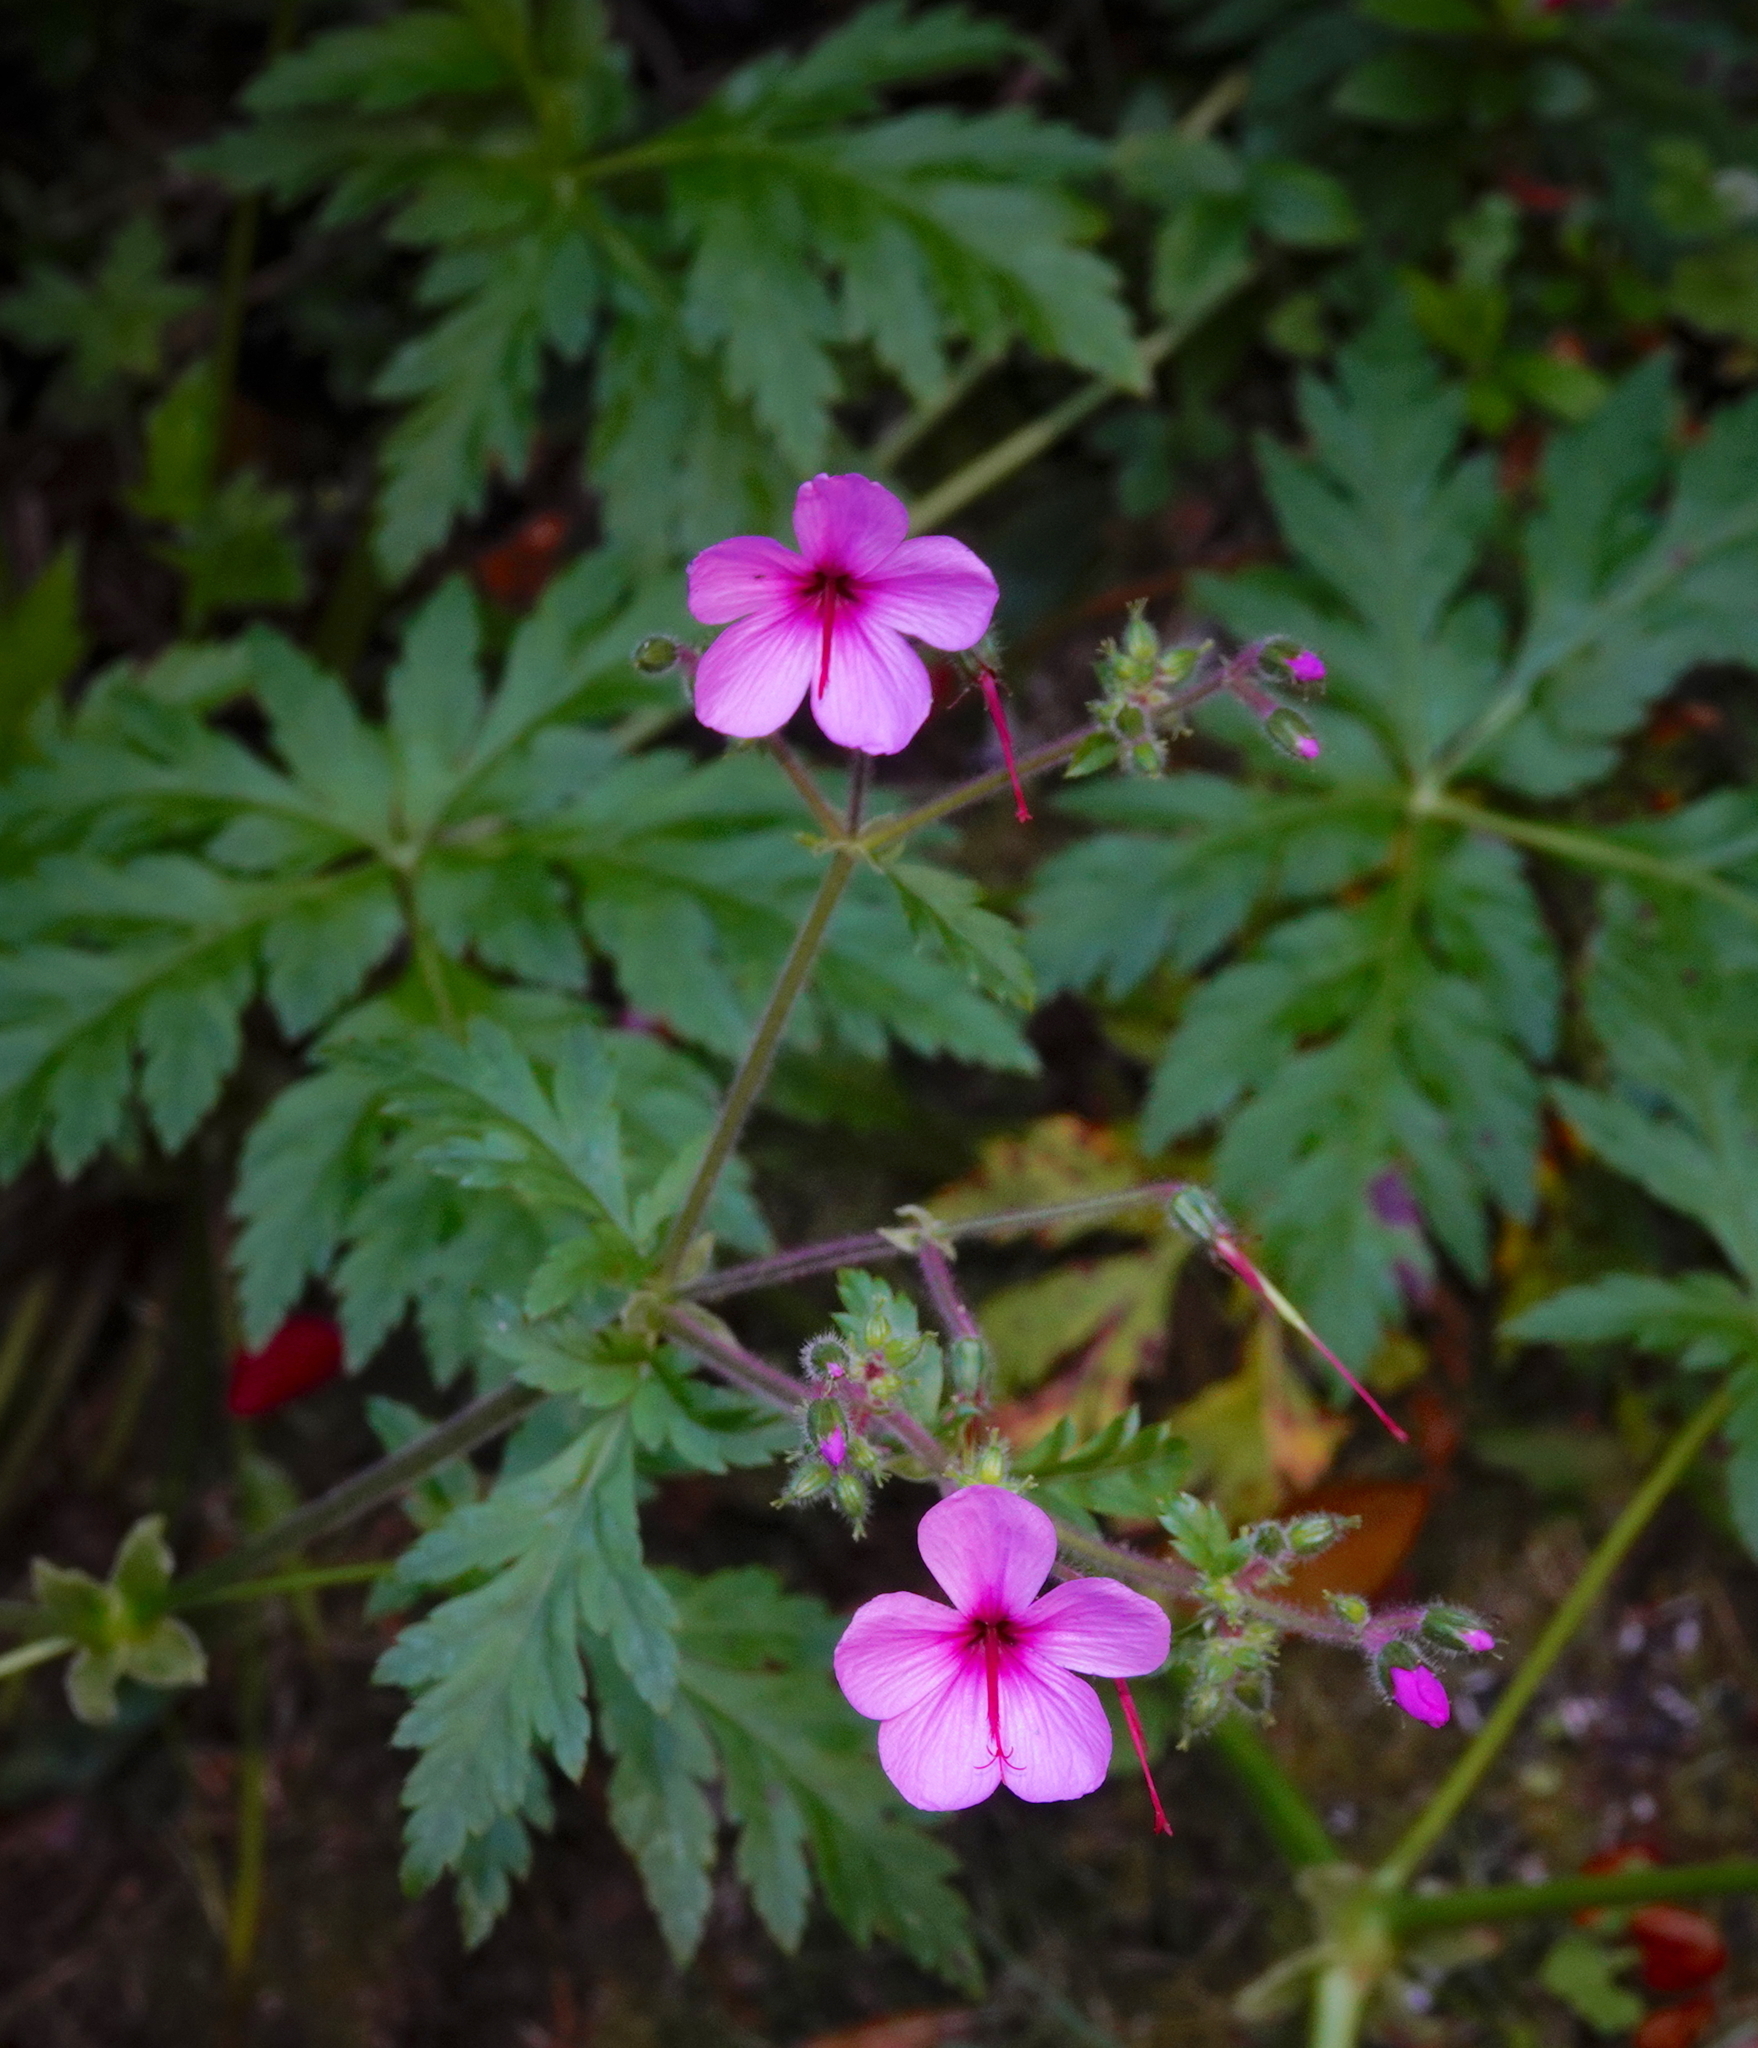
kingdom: Plantae
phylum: Tracheophyta
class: Magnoliopsida
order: Geraniales
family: Geraniaceae
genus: Geranium
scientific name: Geranium palmatum
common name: Canary island geranium
